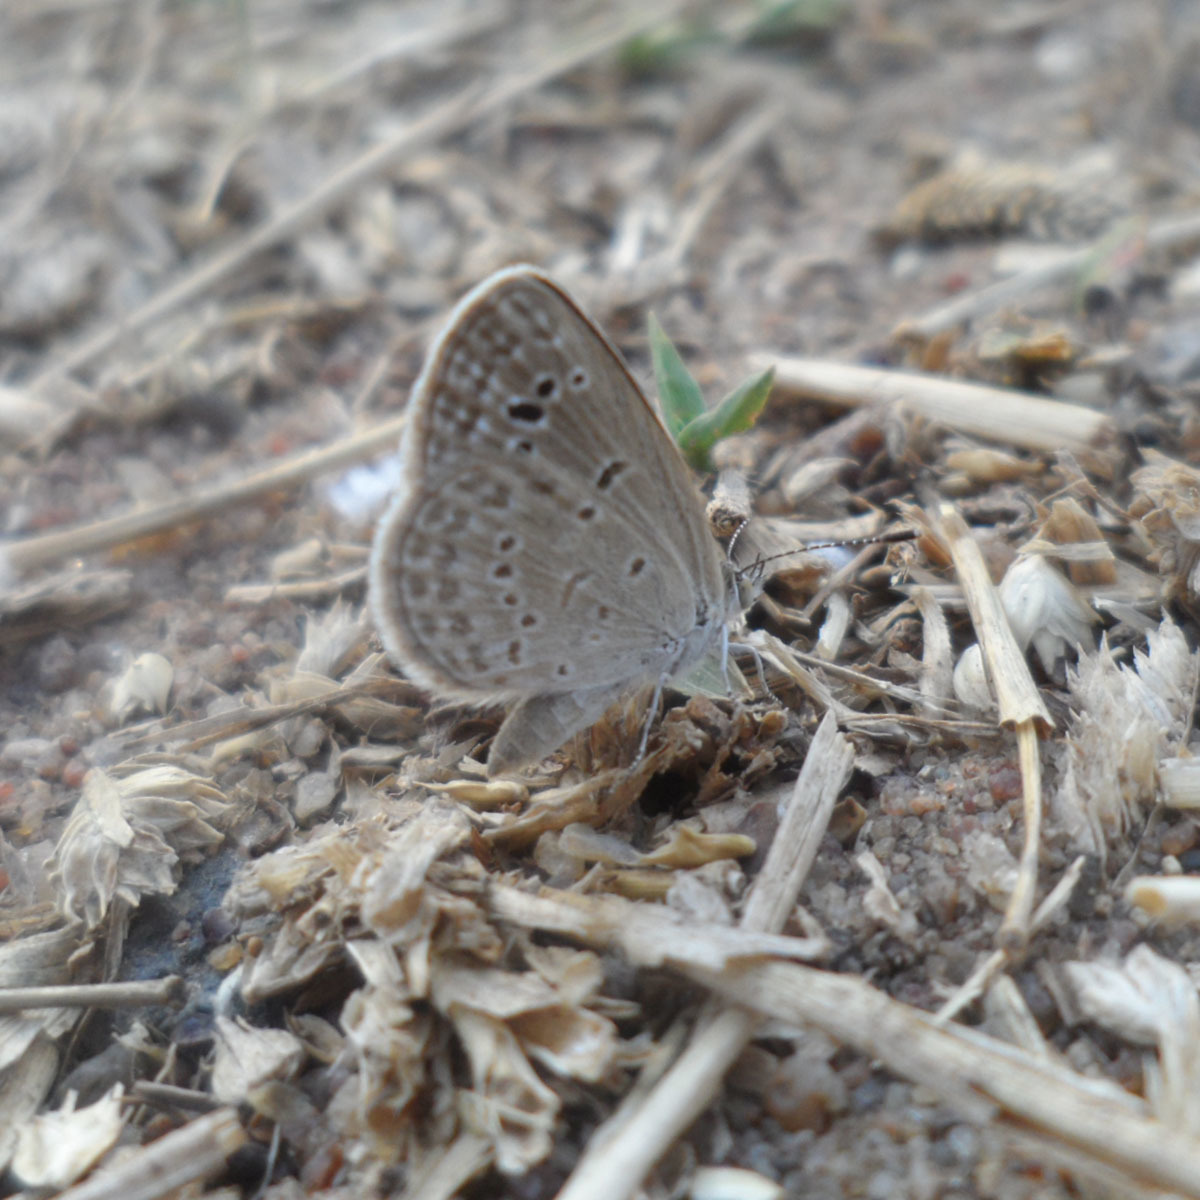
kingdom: Animalia
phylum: Arthropoda
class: Insecta
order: Lepidoptera
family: Lycaenidae
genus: Zizina
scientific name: Zizina otis
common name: Lesser grass blue
